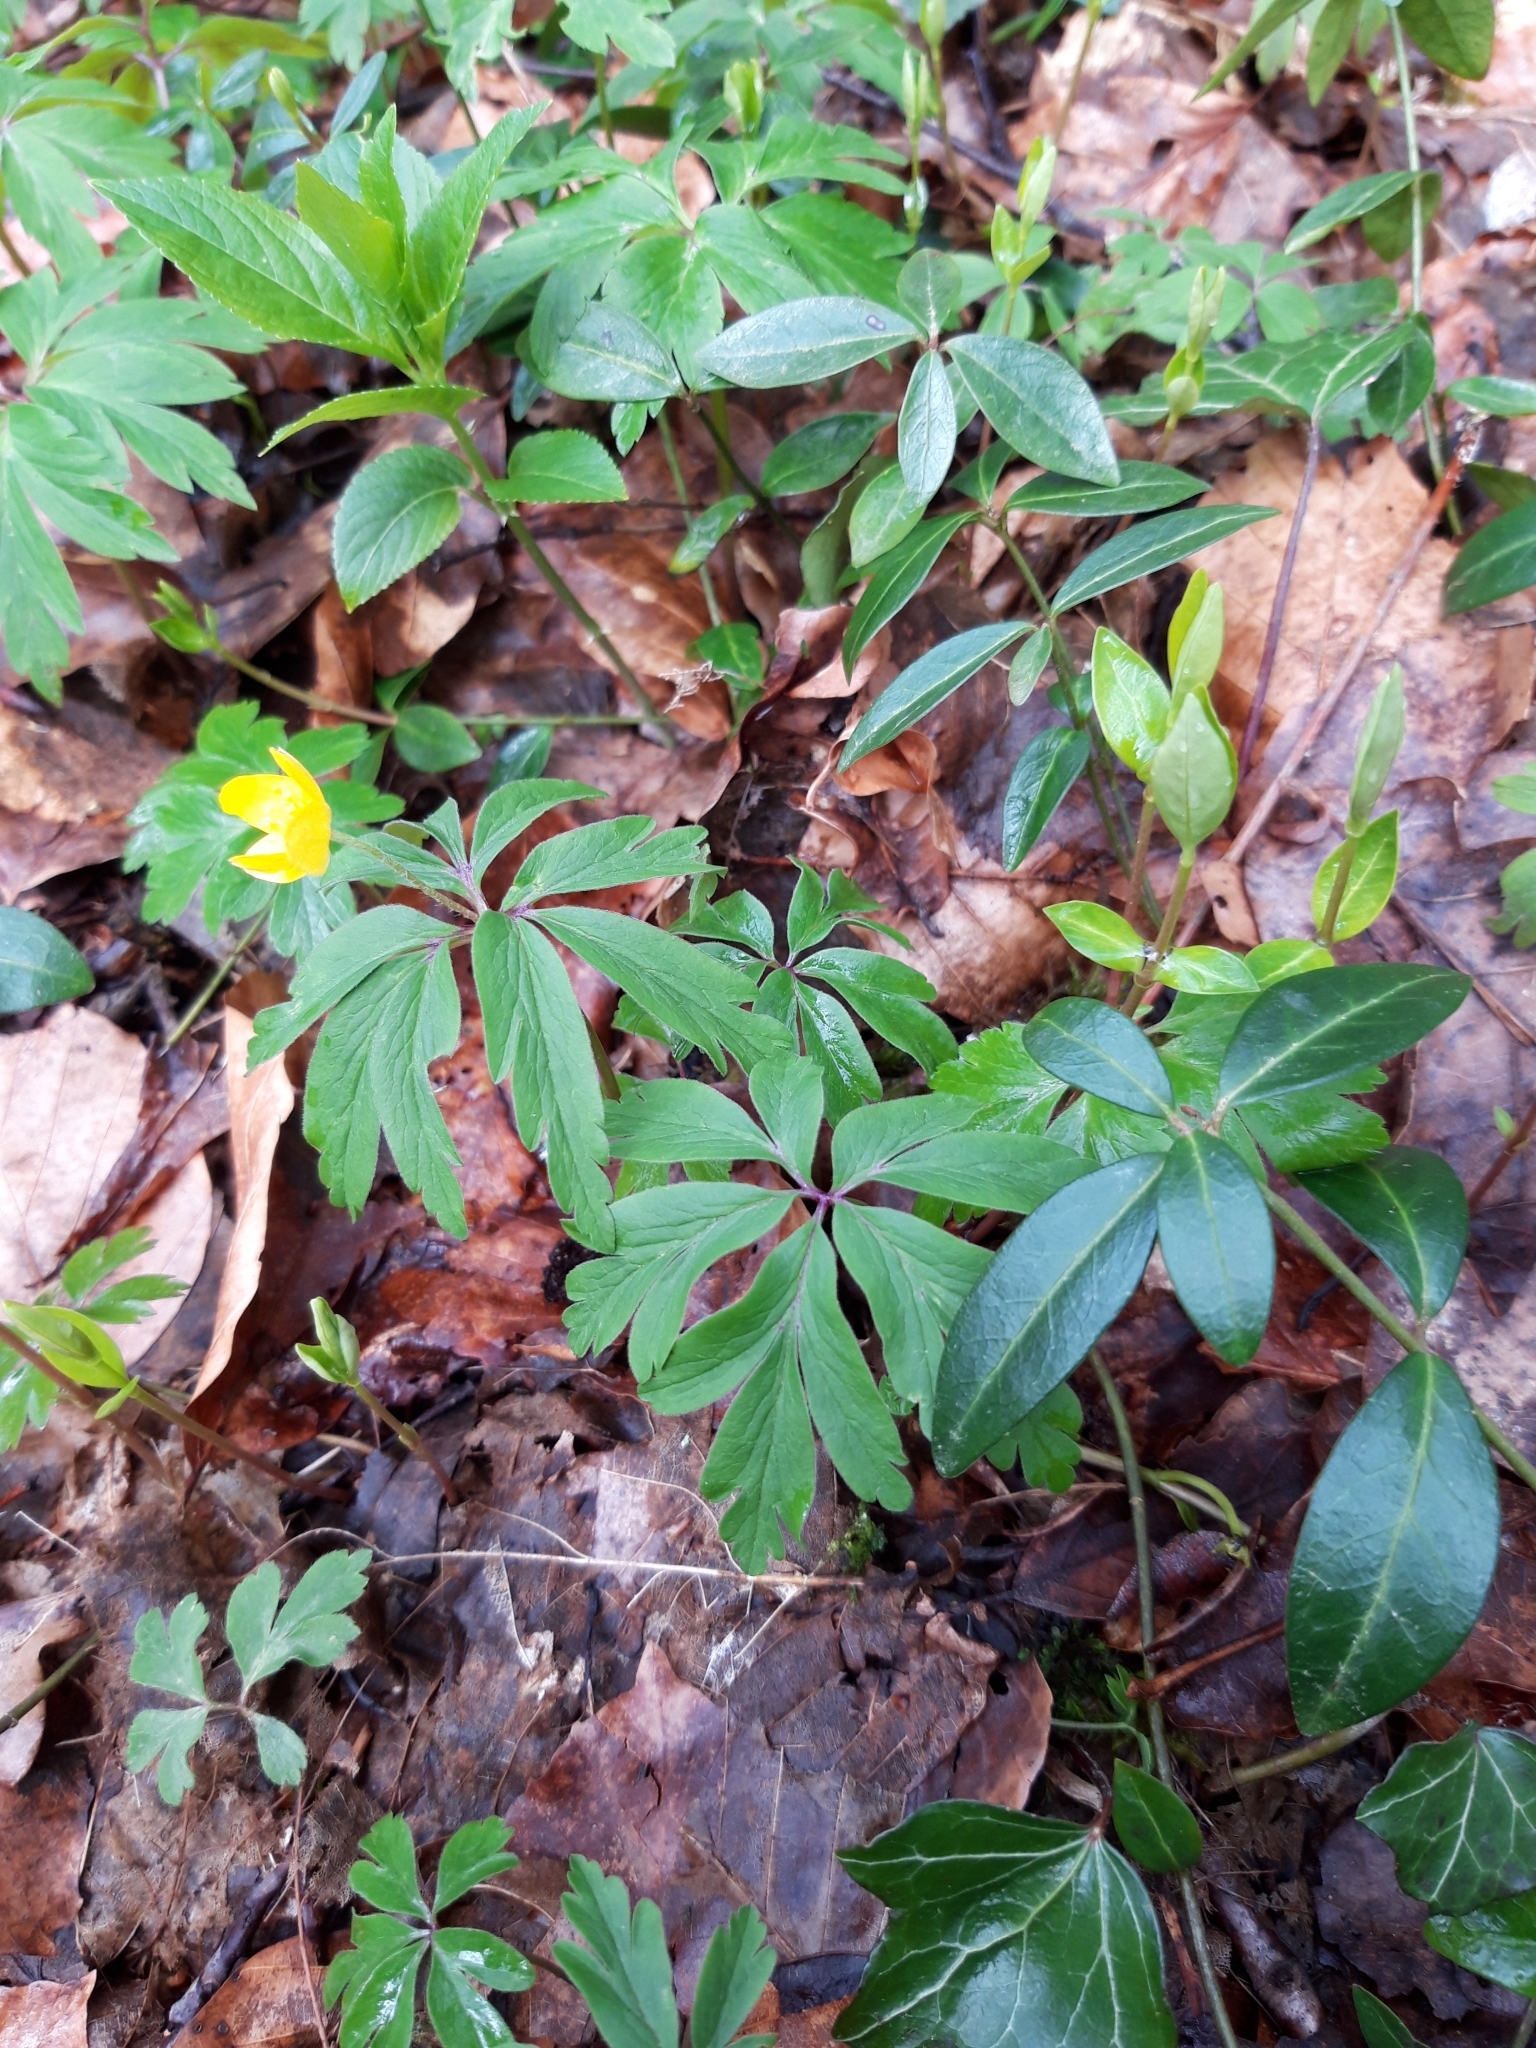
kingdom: Plantae
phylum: Tracheophyta
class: Magnoliopsida
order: Ranunculales
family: Ranunculaceae
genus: Anemone
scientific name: Anemone ranunculoides
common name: Yellow anemone
